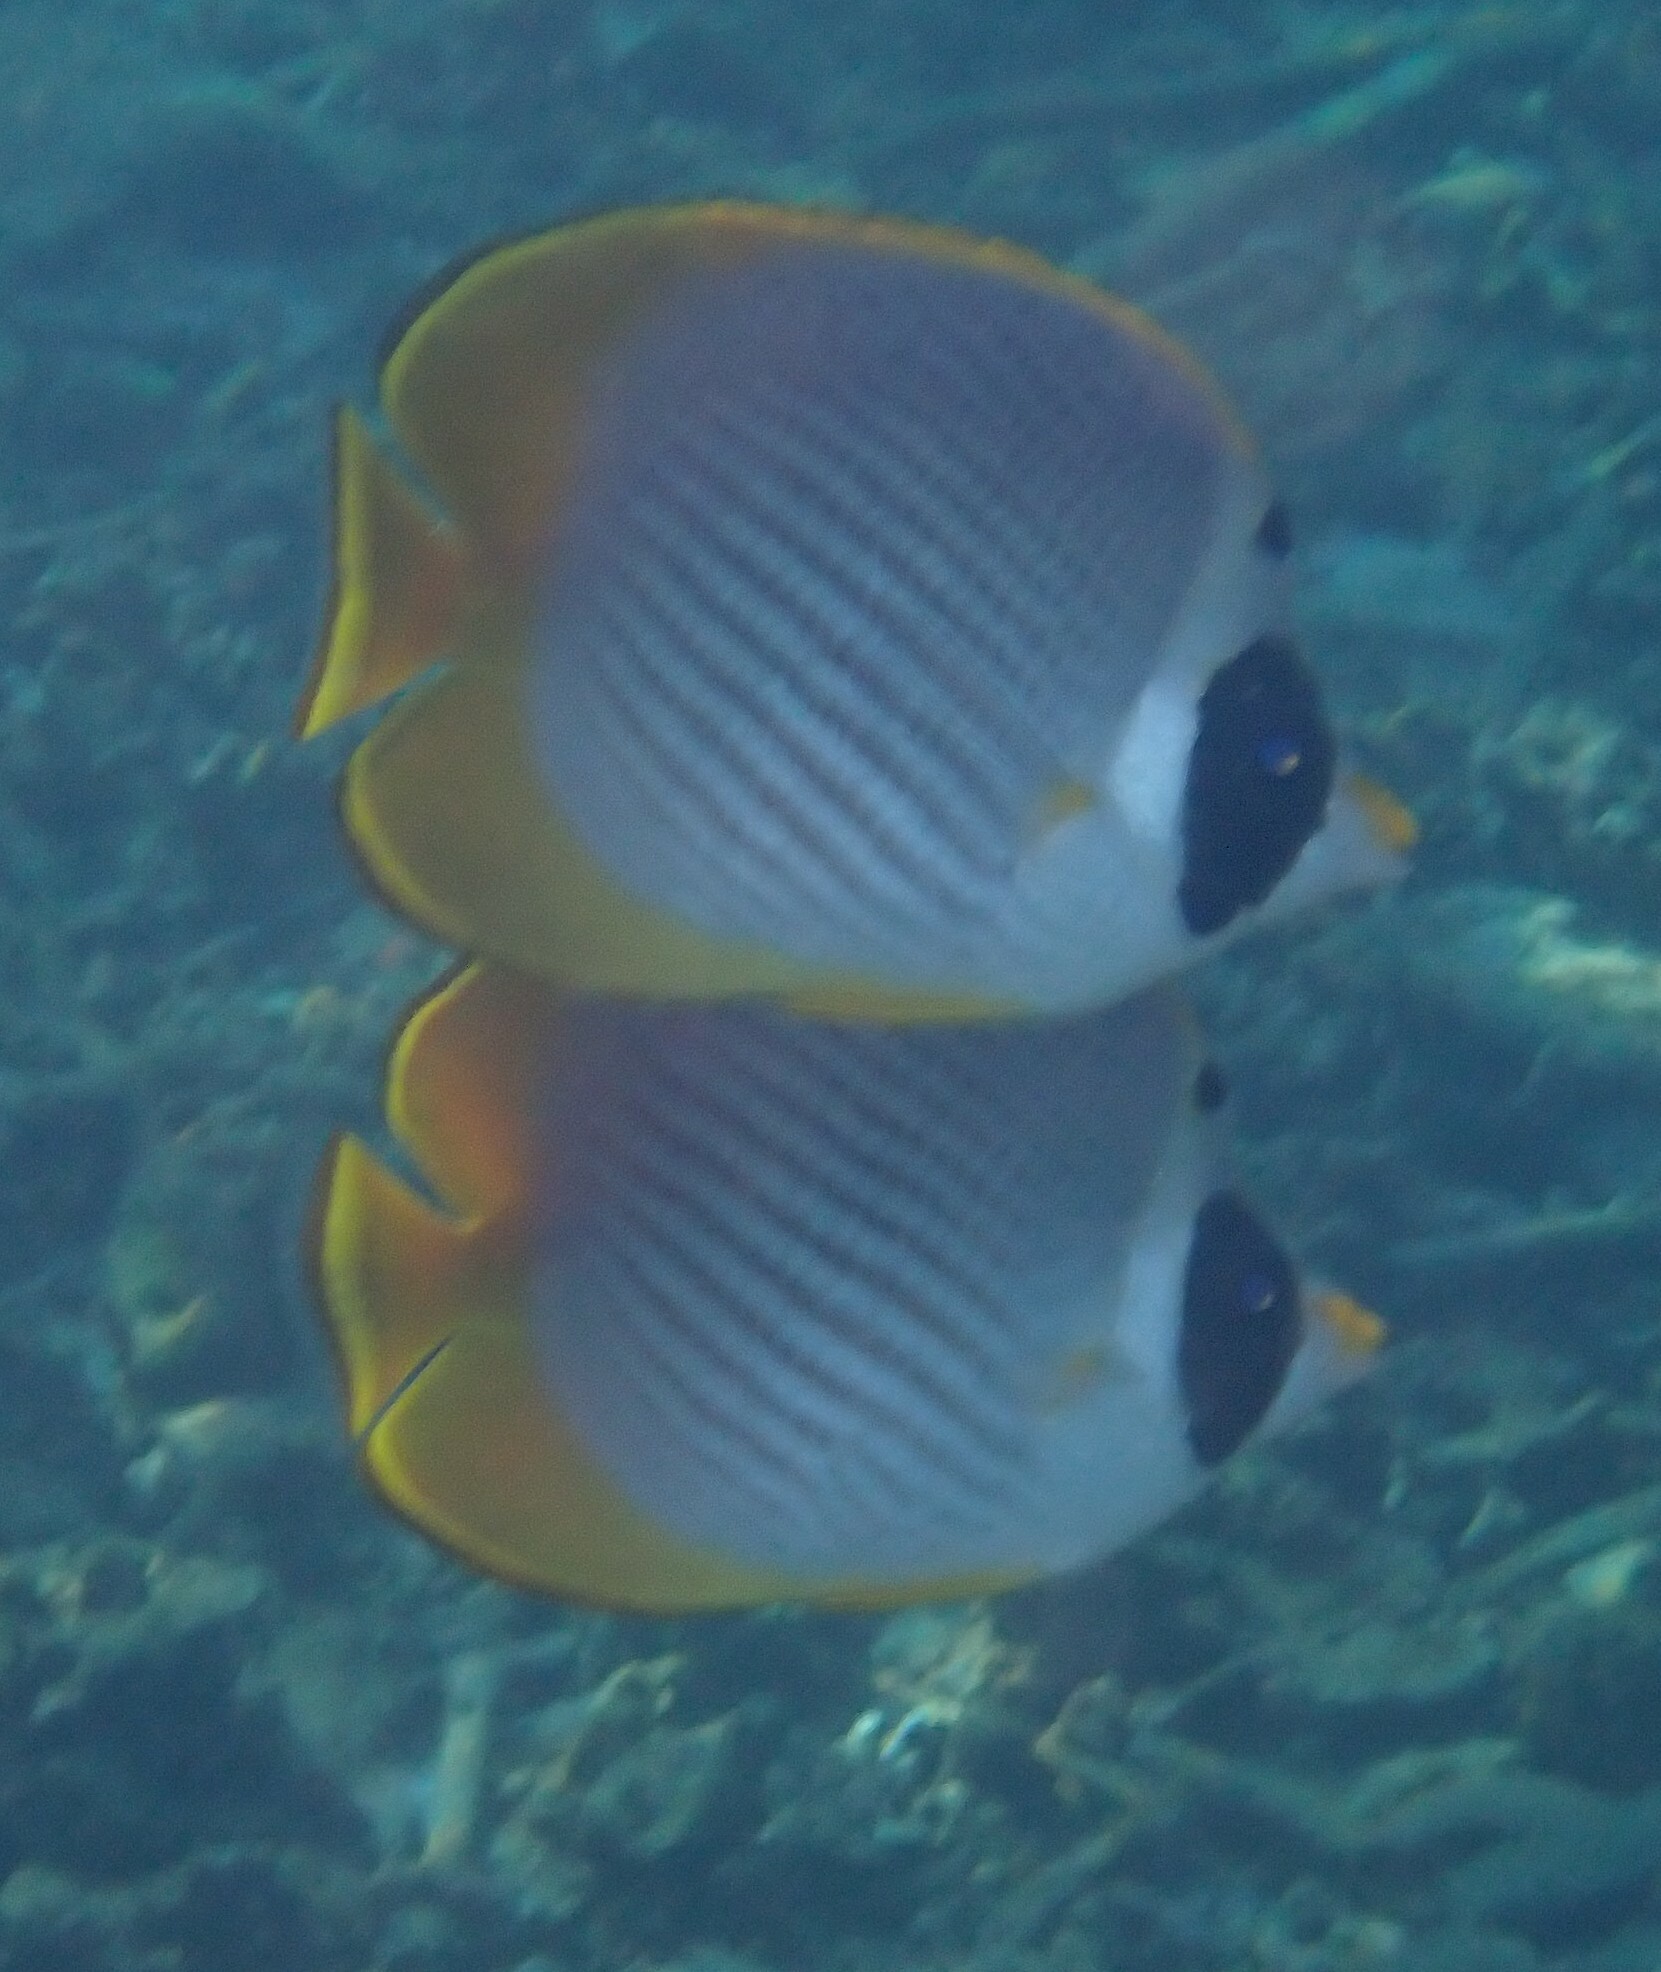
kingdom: Animalia
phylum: Chordata
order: Perciformes
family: Chaetodontidae
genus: Chaetodon
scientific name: Chaetodon adiergastos
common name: Eye-patch butterflyfish
